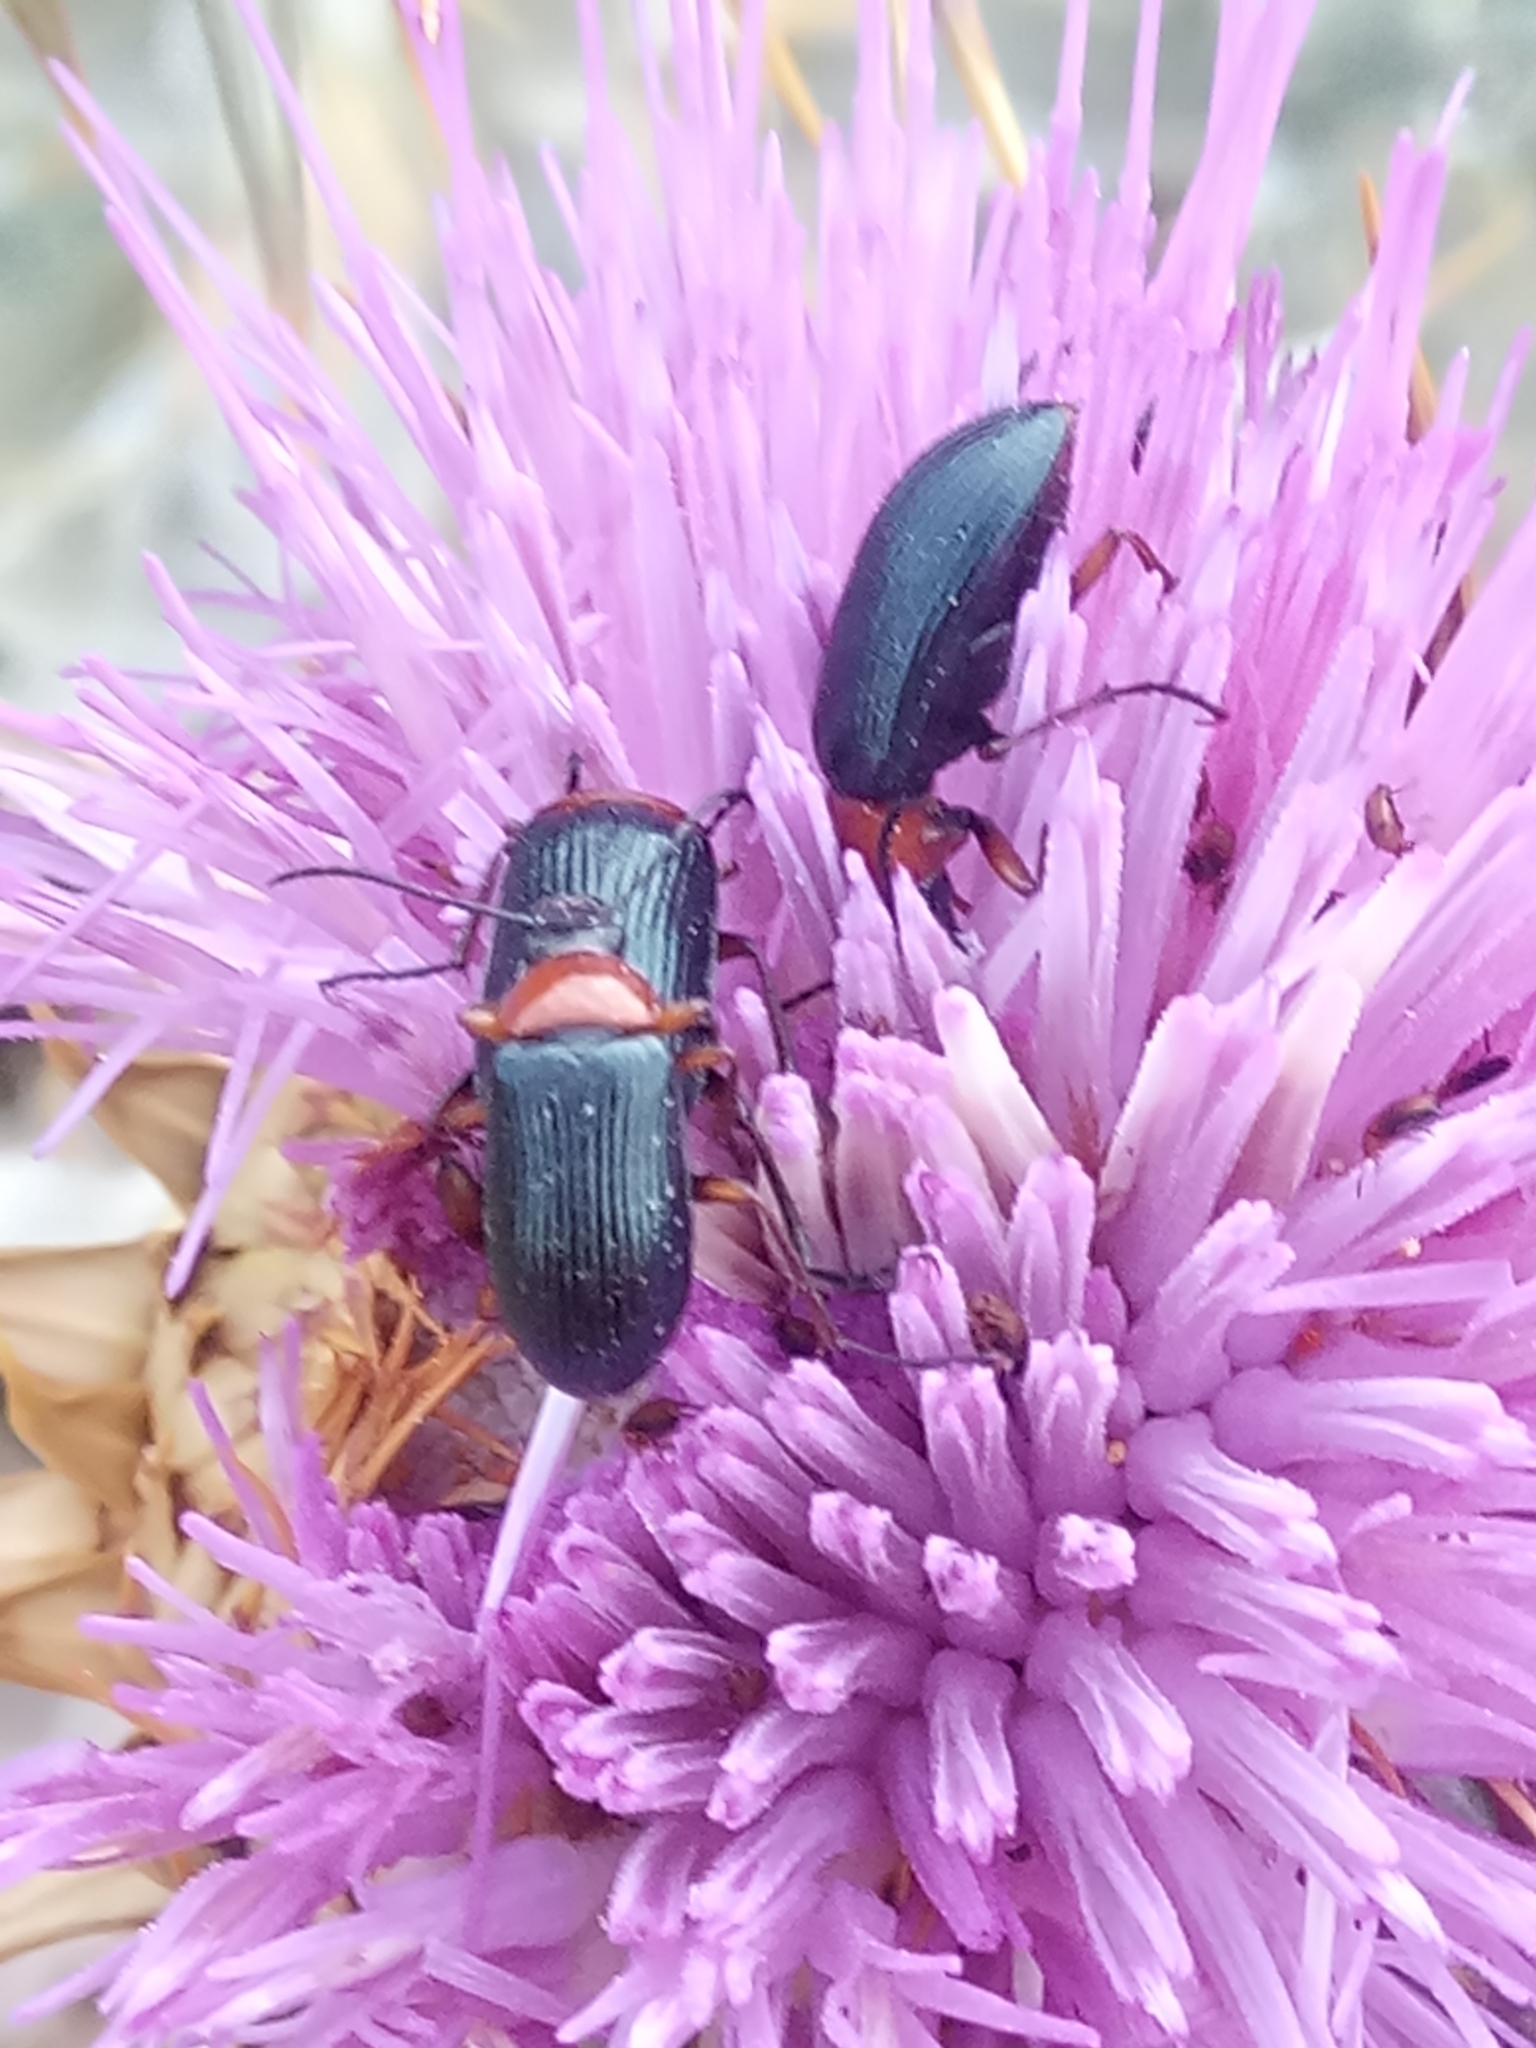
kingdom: Animalia
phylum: Arthropoda
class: Insecta
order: Coleoptera
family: Tenebrionidae
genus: Heliotaurus
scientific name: Heliotaurus ruficollis
